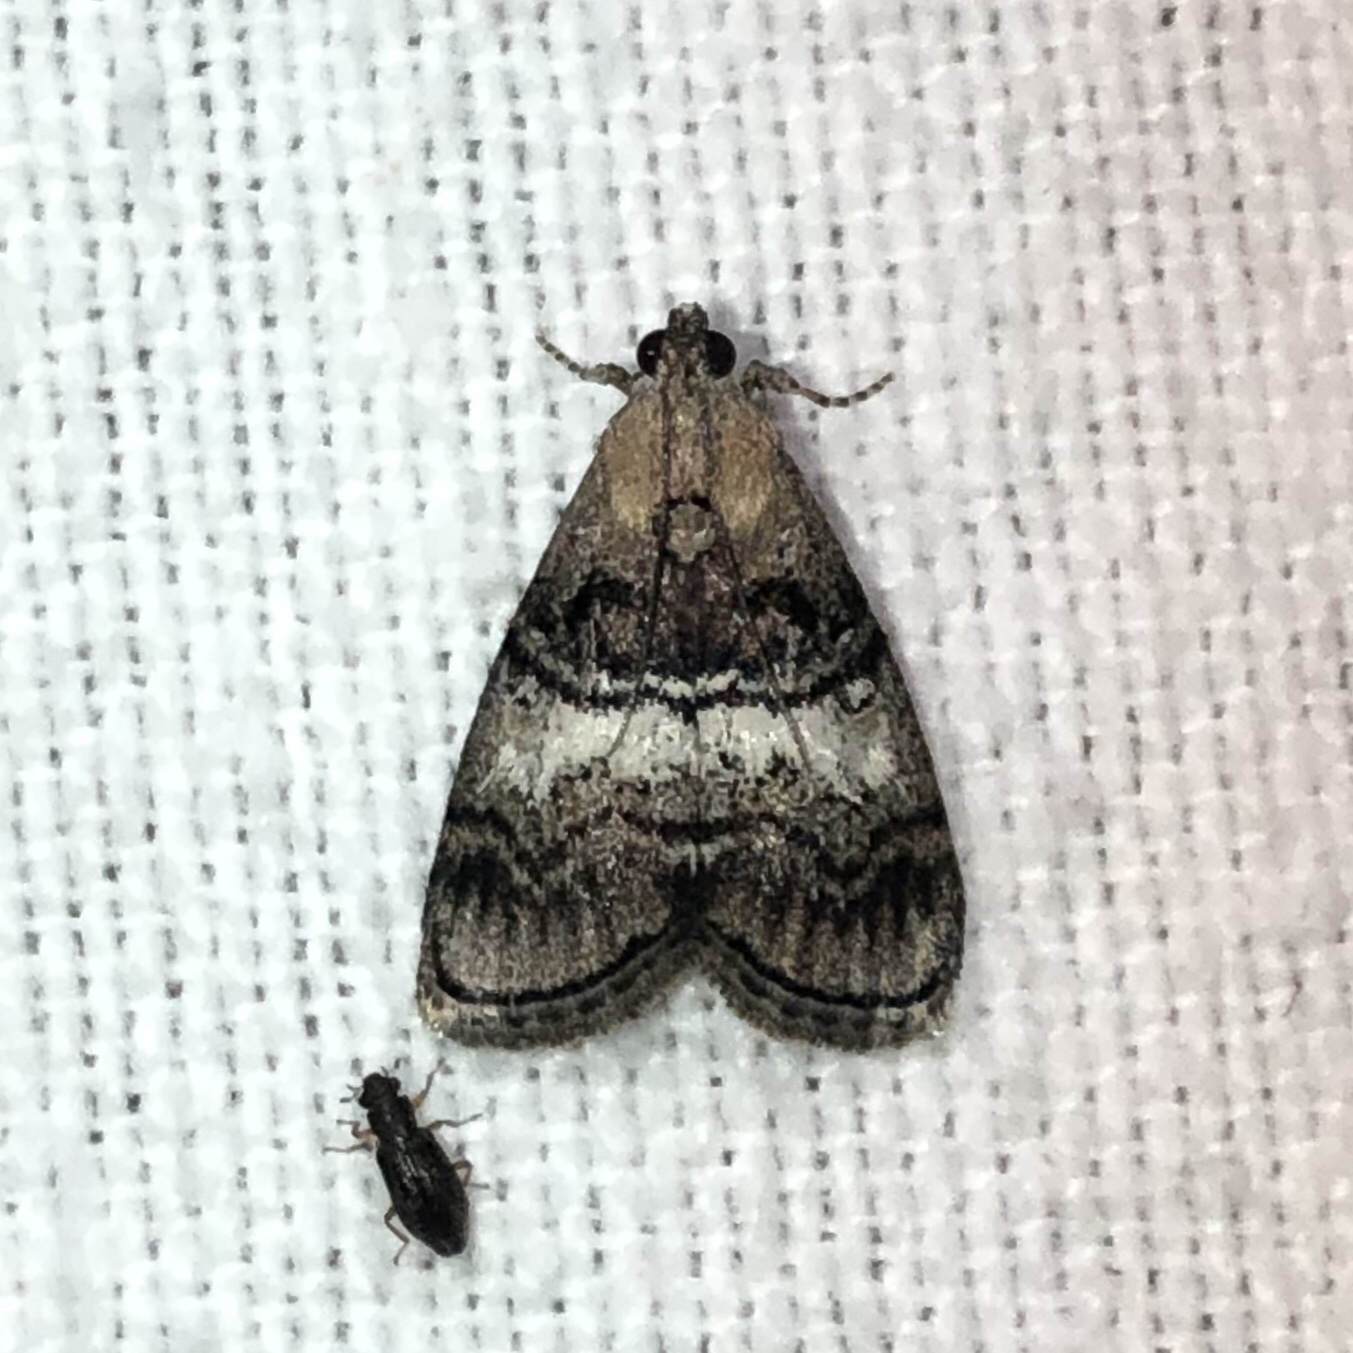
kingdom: Animalia
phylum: Arthropoda
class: Insecta
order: Lepidoptera
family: Pyralidae
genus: Pococera
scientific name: Pococera asperatella
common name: Maple webworm moth
